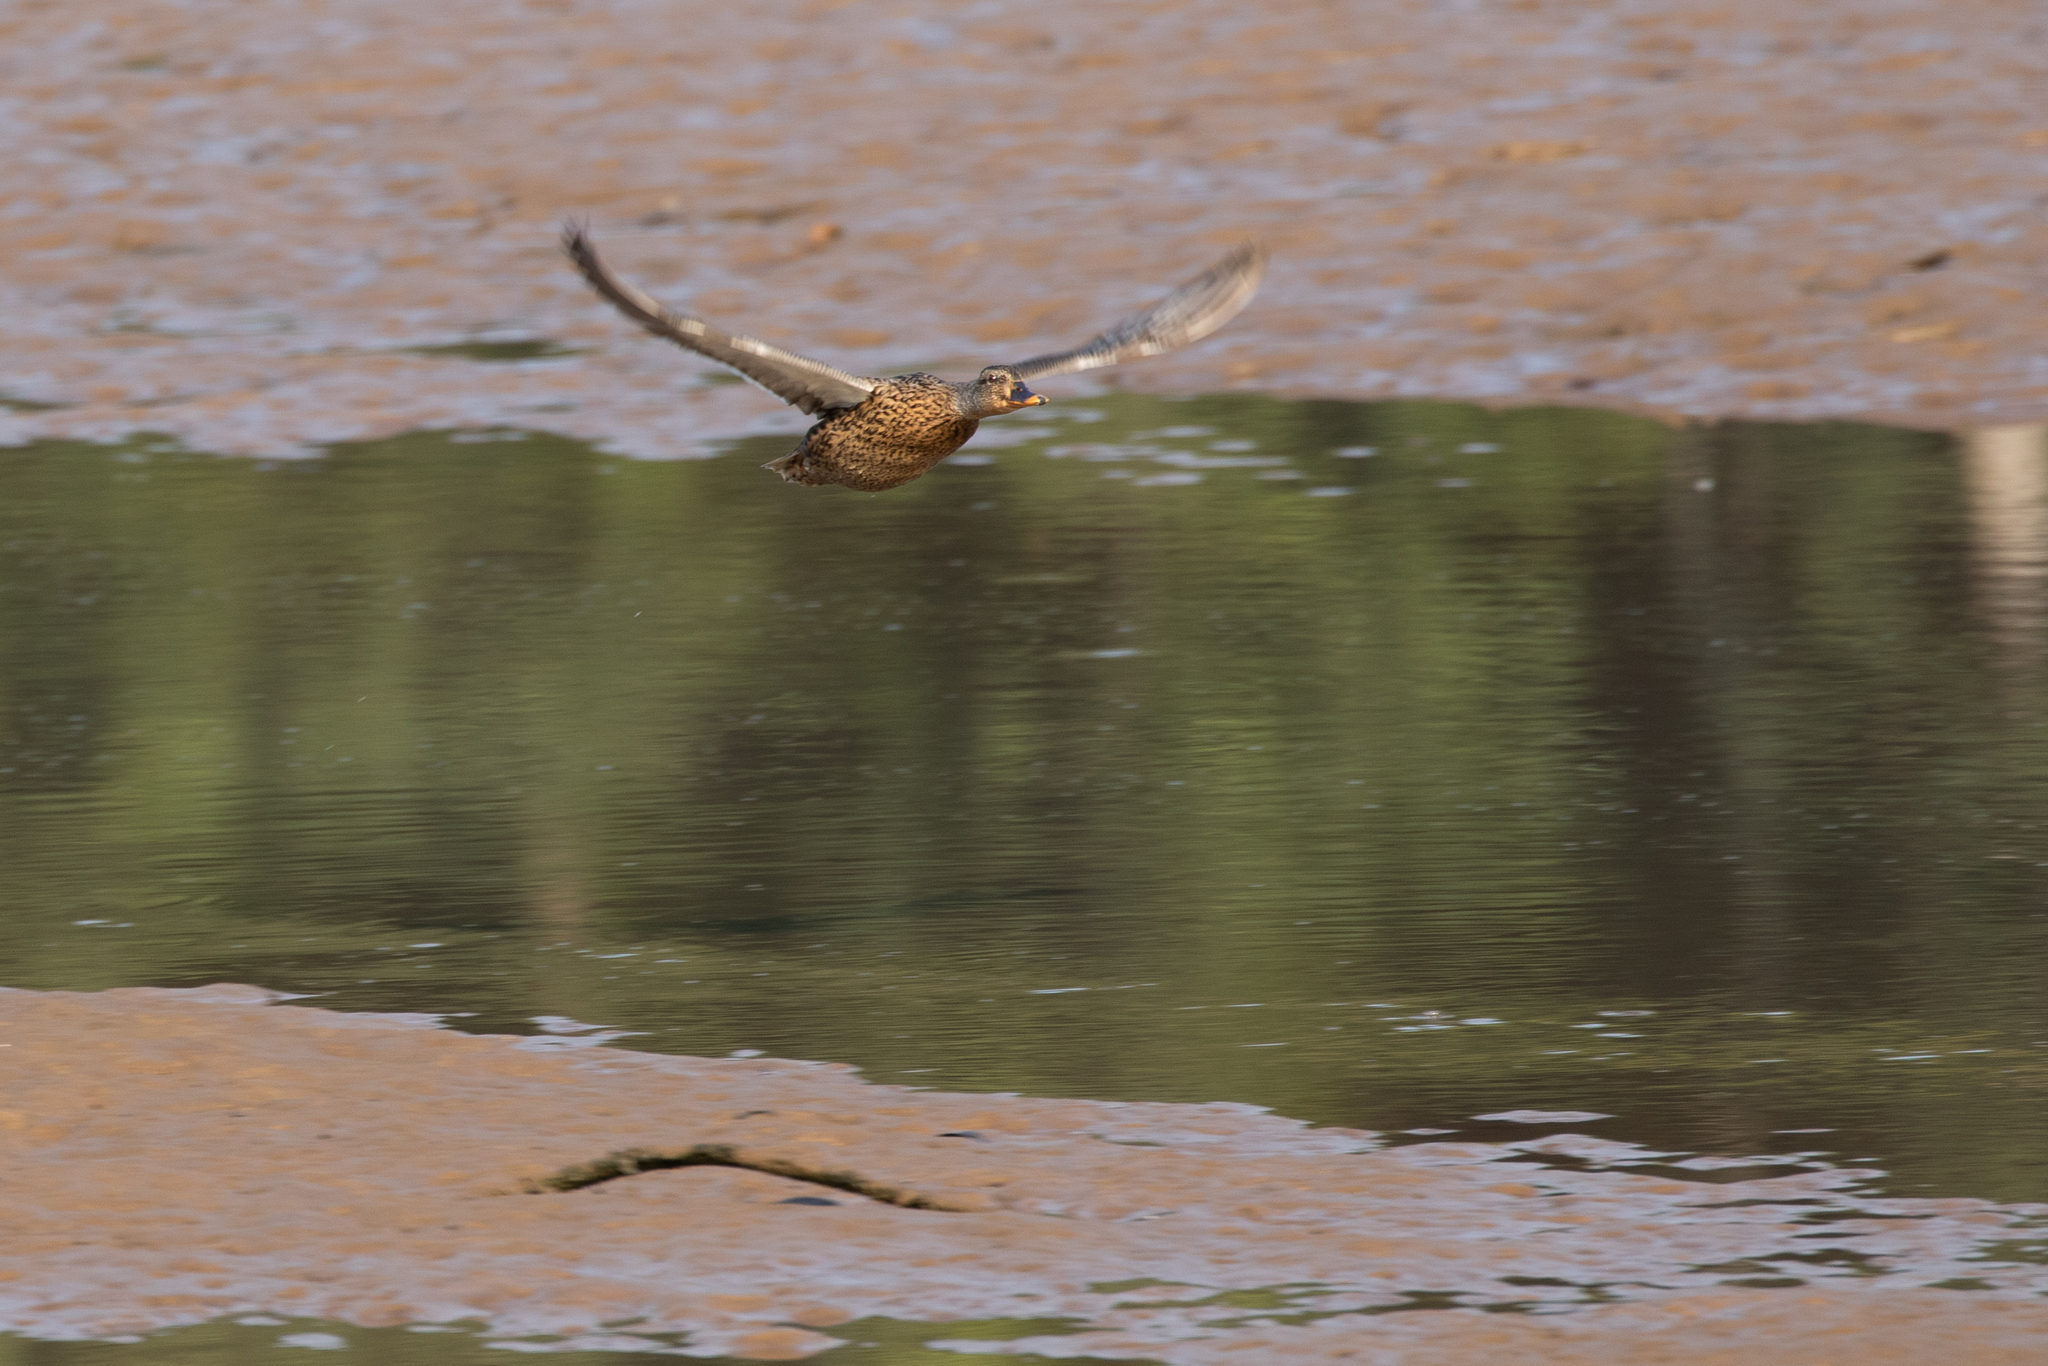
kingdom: Animalia
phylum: Chordata
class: Aves
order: Anseriformes
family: Anatidae
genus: Anas
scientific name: Anas platyrhynchos
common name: Mallard
